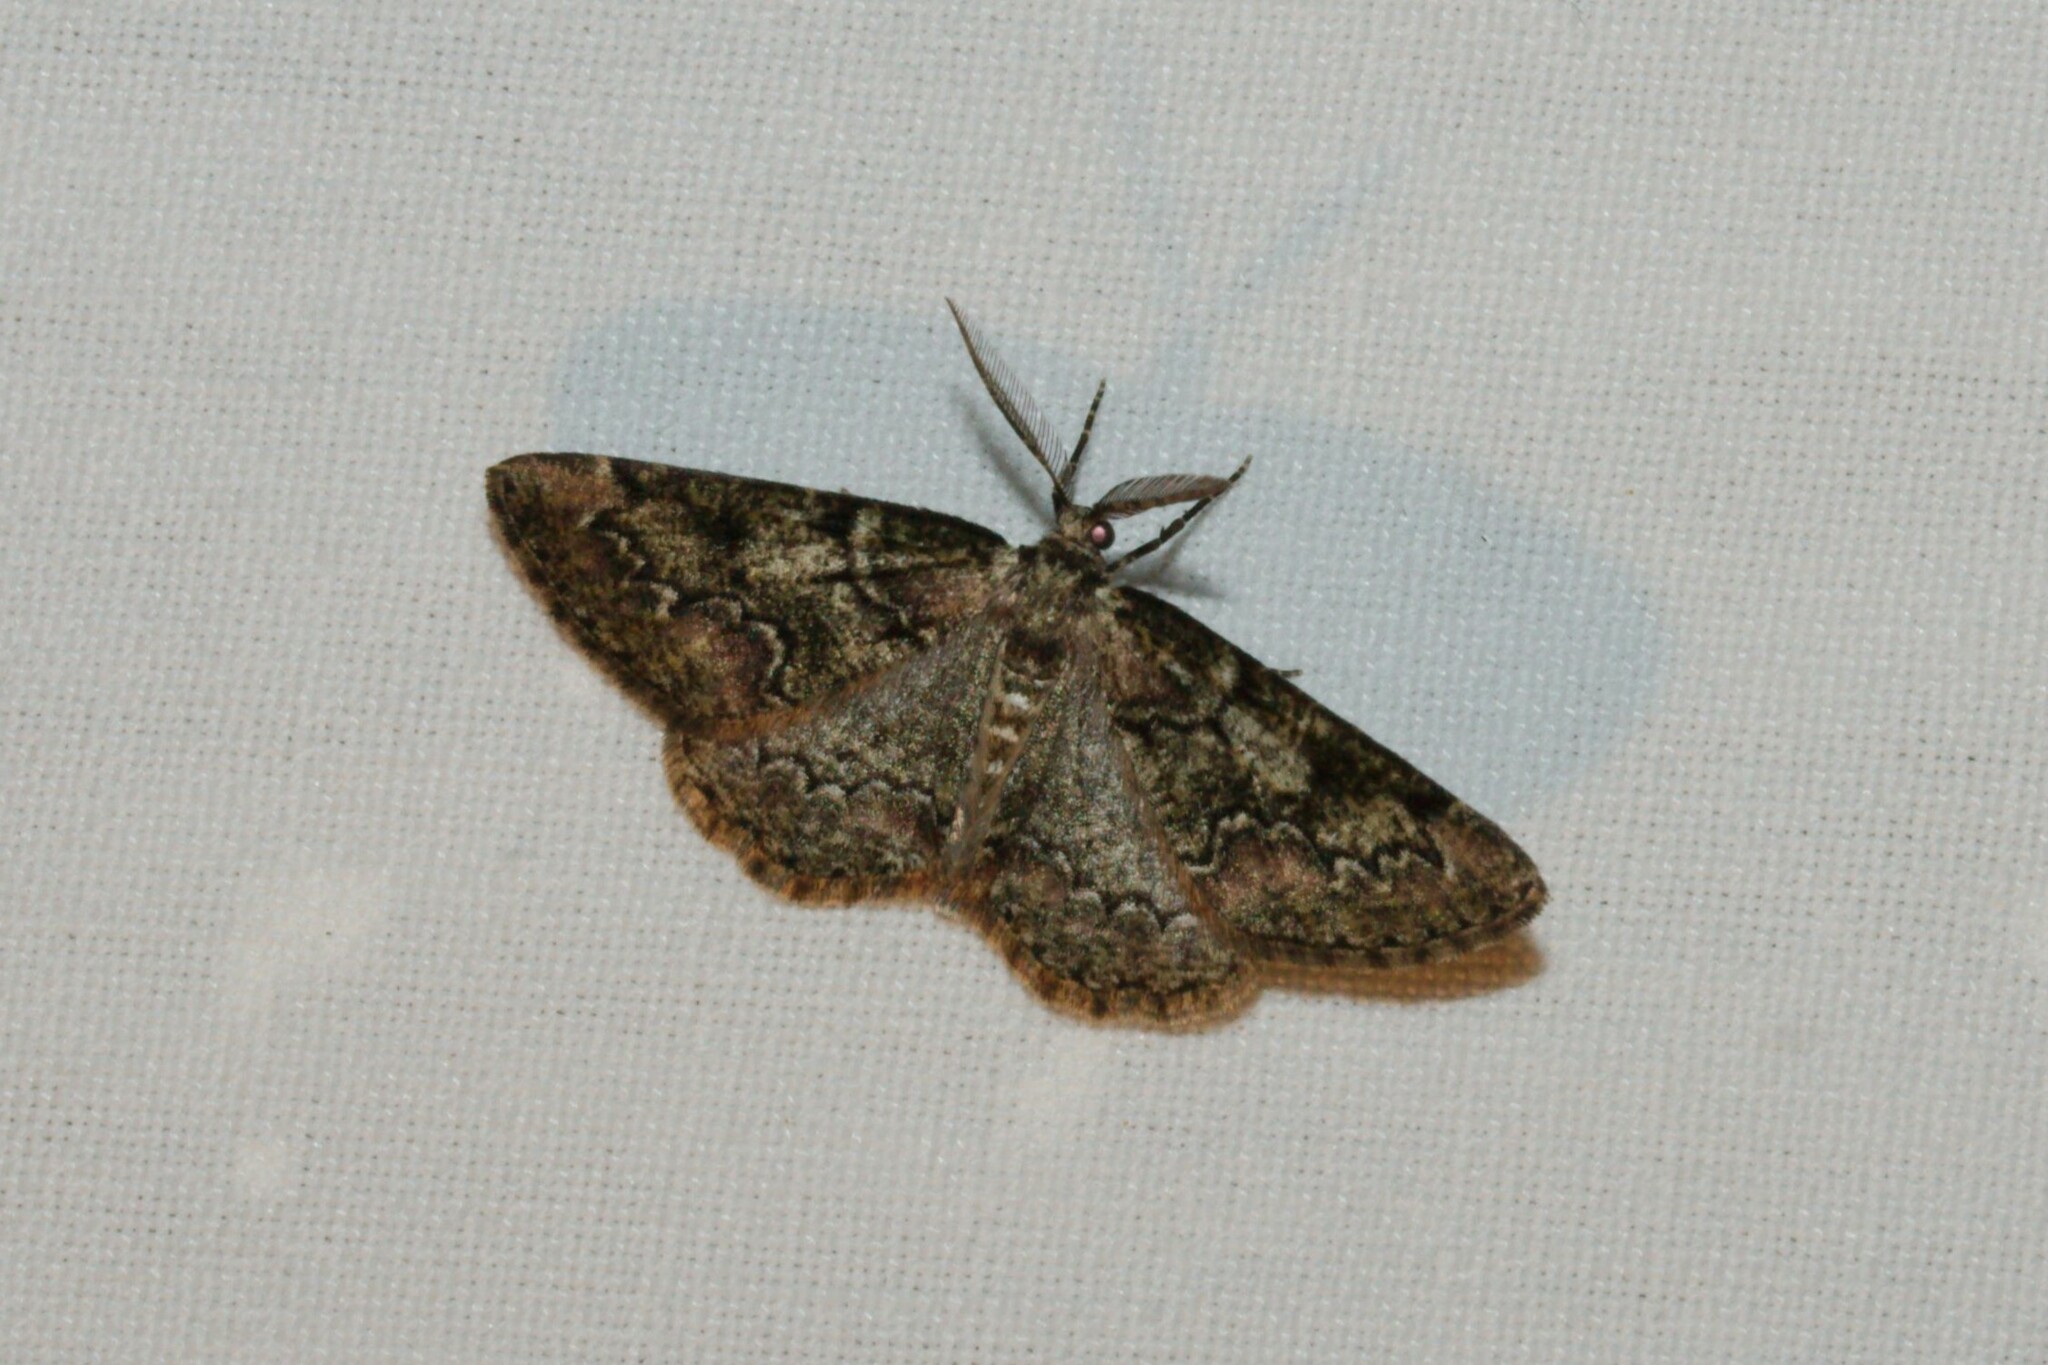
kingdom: Animalia
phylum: Arthropoda
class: Insecta
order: Lepidoptera
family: Geometridae
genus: Cleorodes
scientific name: Cleorodes lichenaria
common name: Brussels lace
